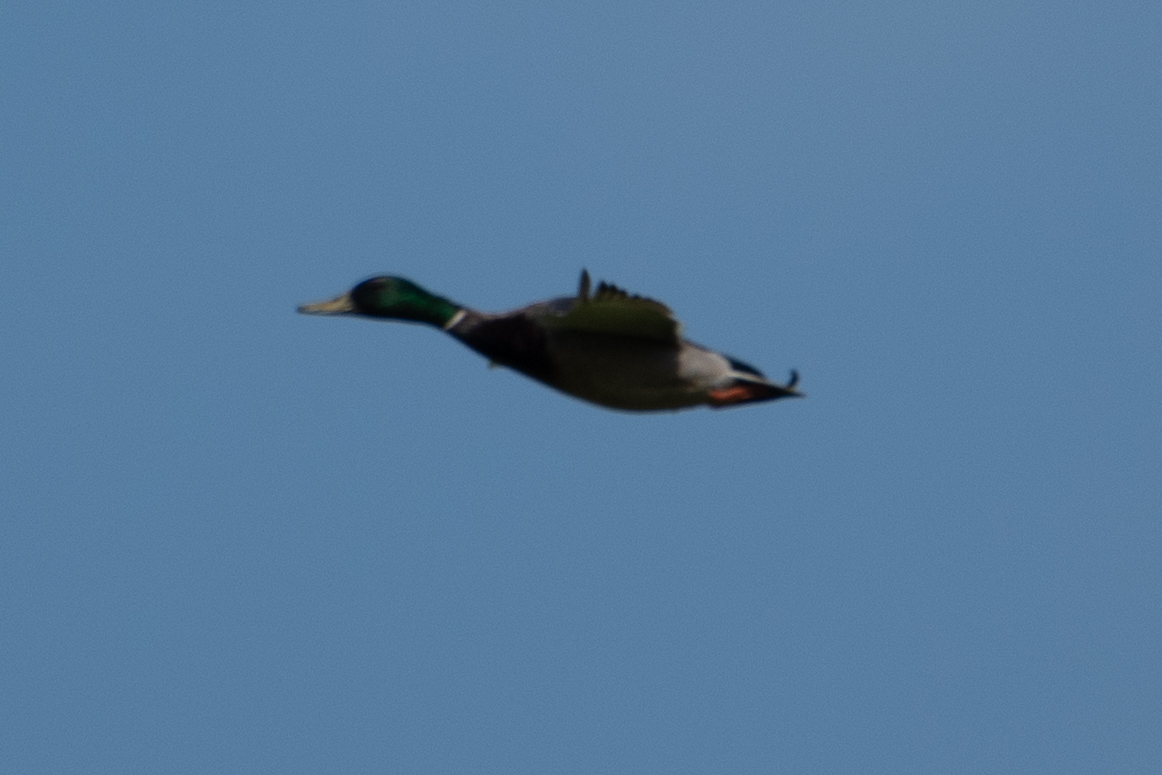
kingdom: Animalia
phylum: Chordata
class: Aves
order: Anseriformes
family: Anatidae
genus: Anas
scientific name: Anas platyrhynchos
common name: Mallard
